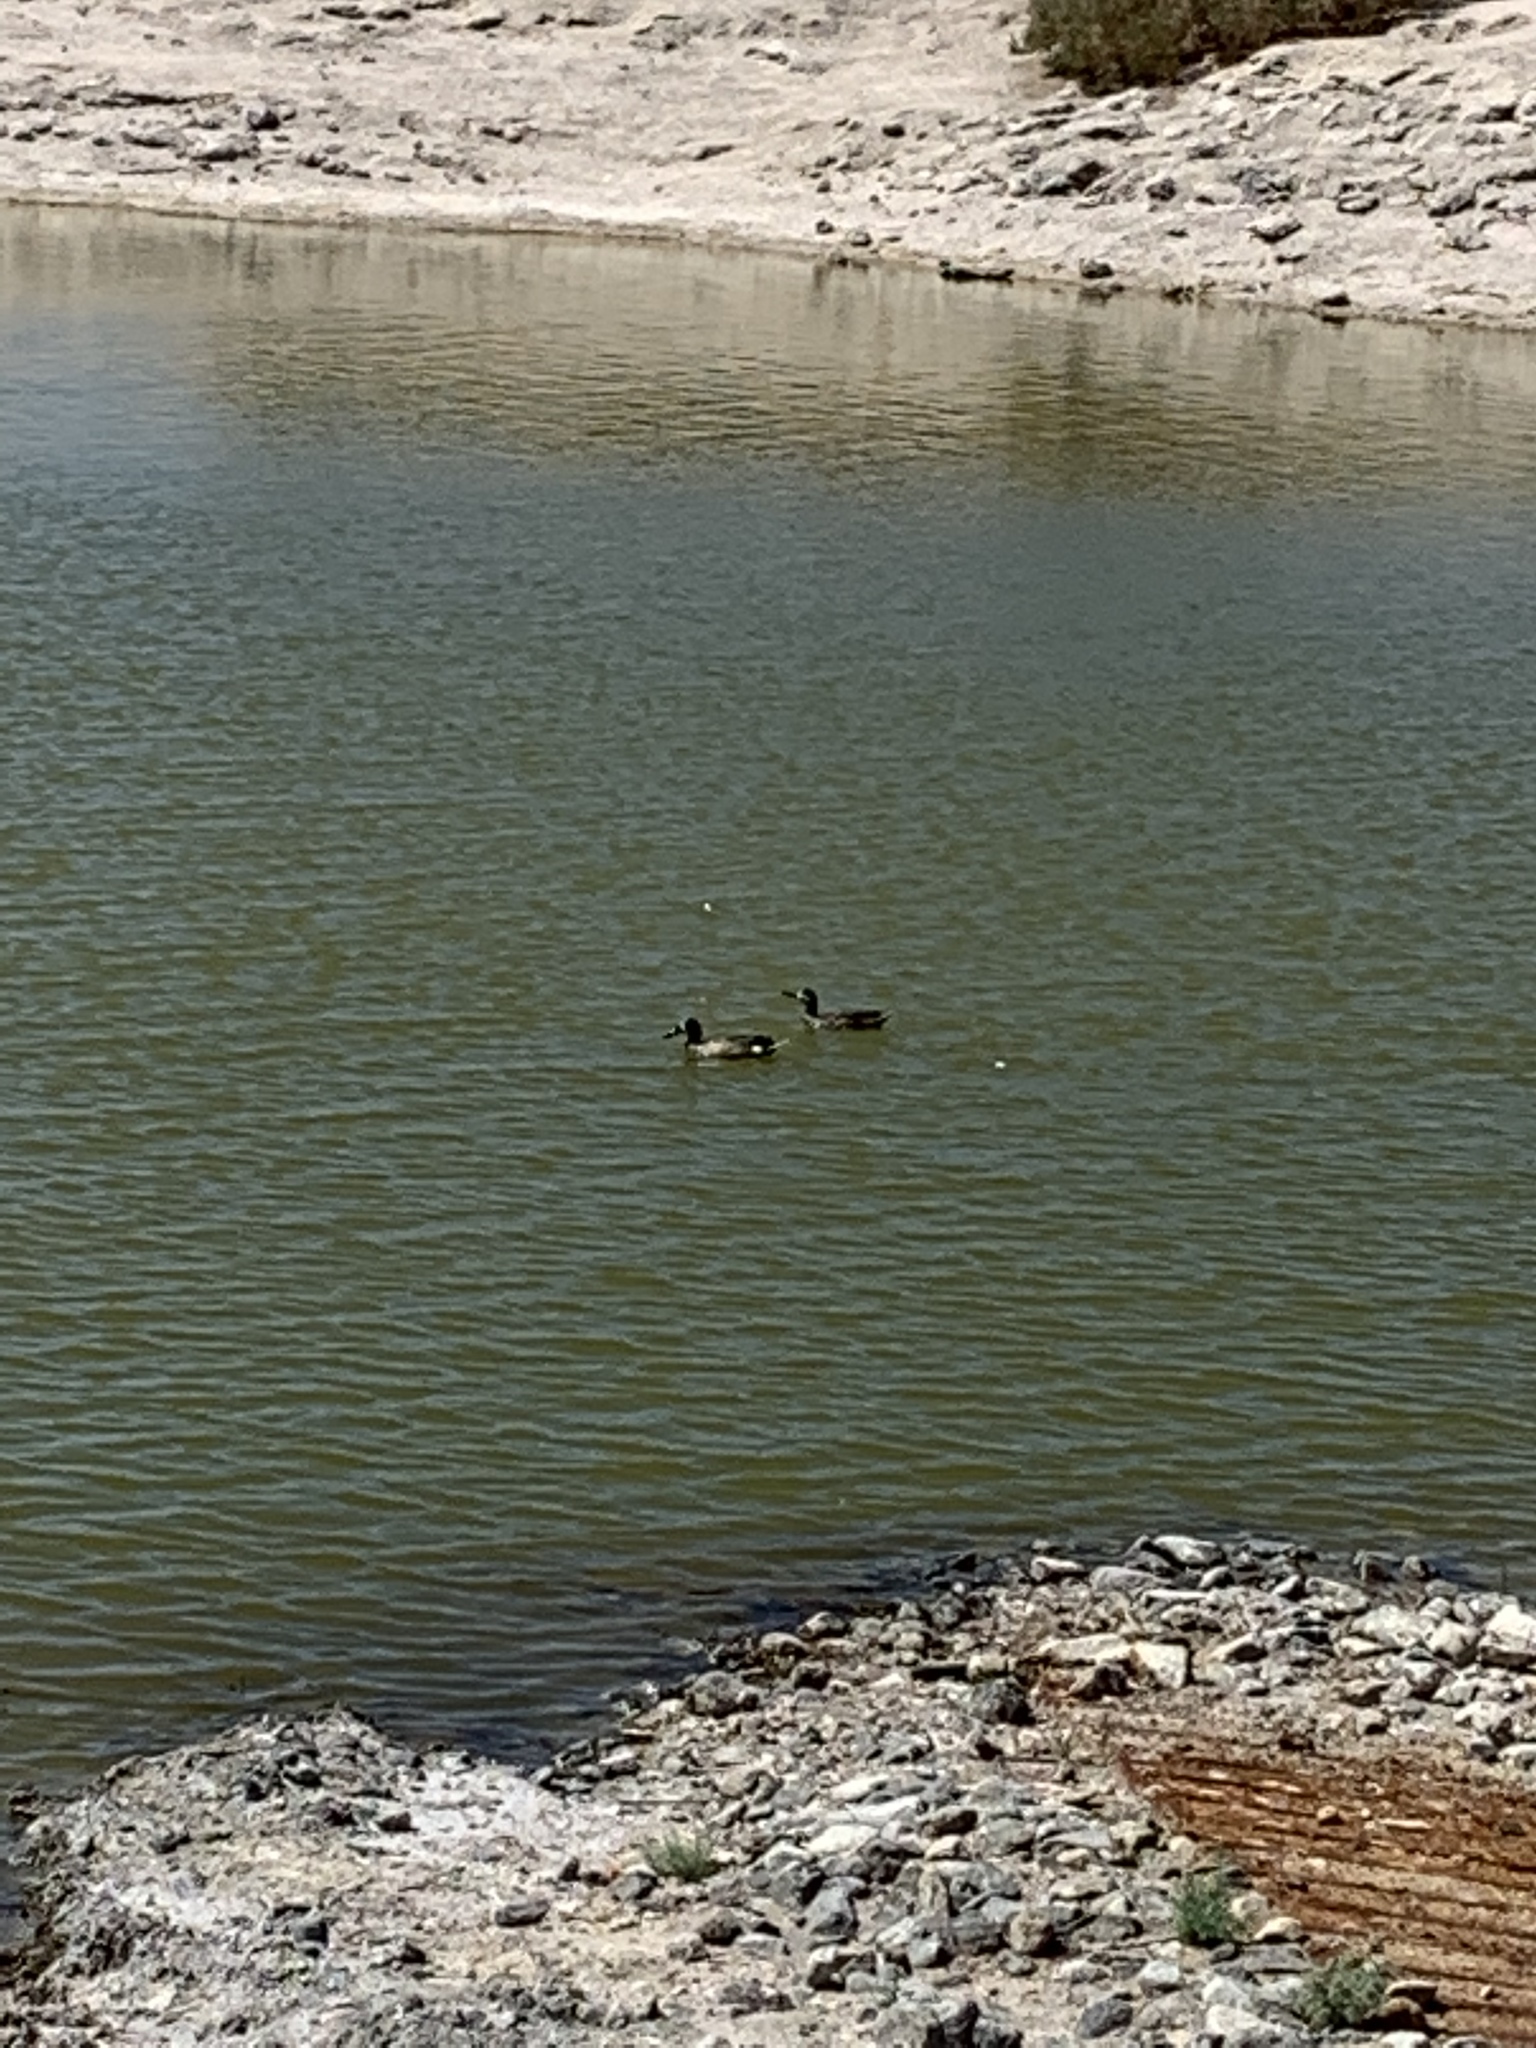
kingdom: Animalia
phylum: Chordata
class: Aves
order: Anseriformes
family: Anatidae
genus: Spatula
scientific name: Spatula discors
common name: Blue-winged teal
